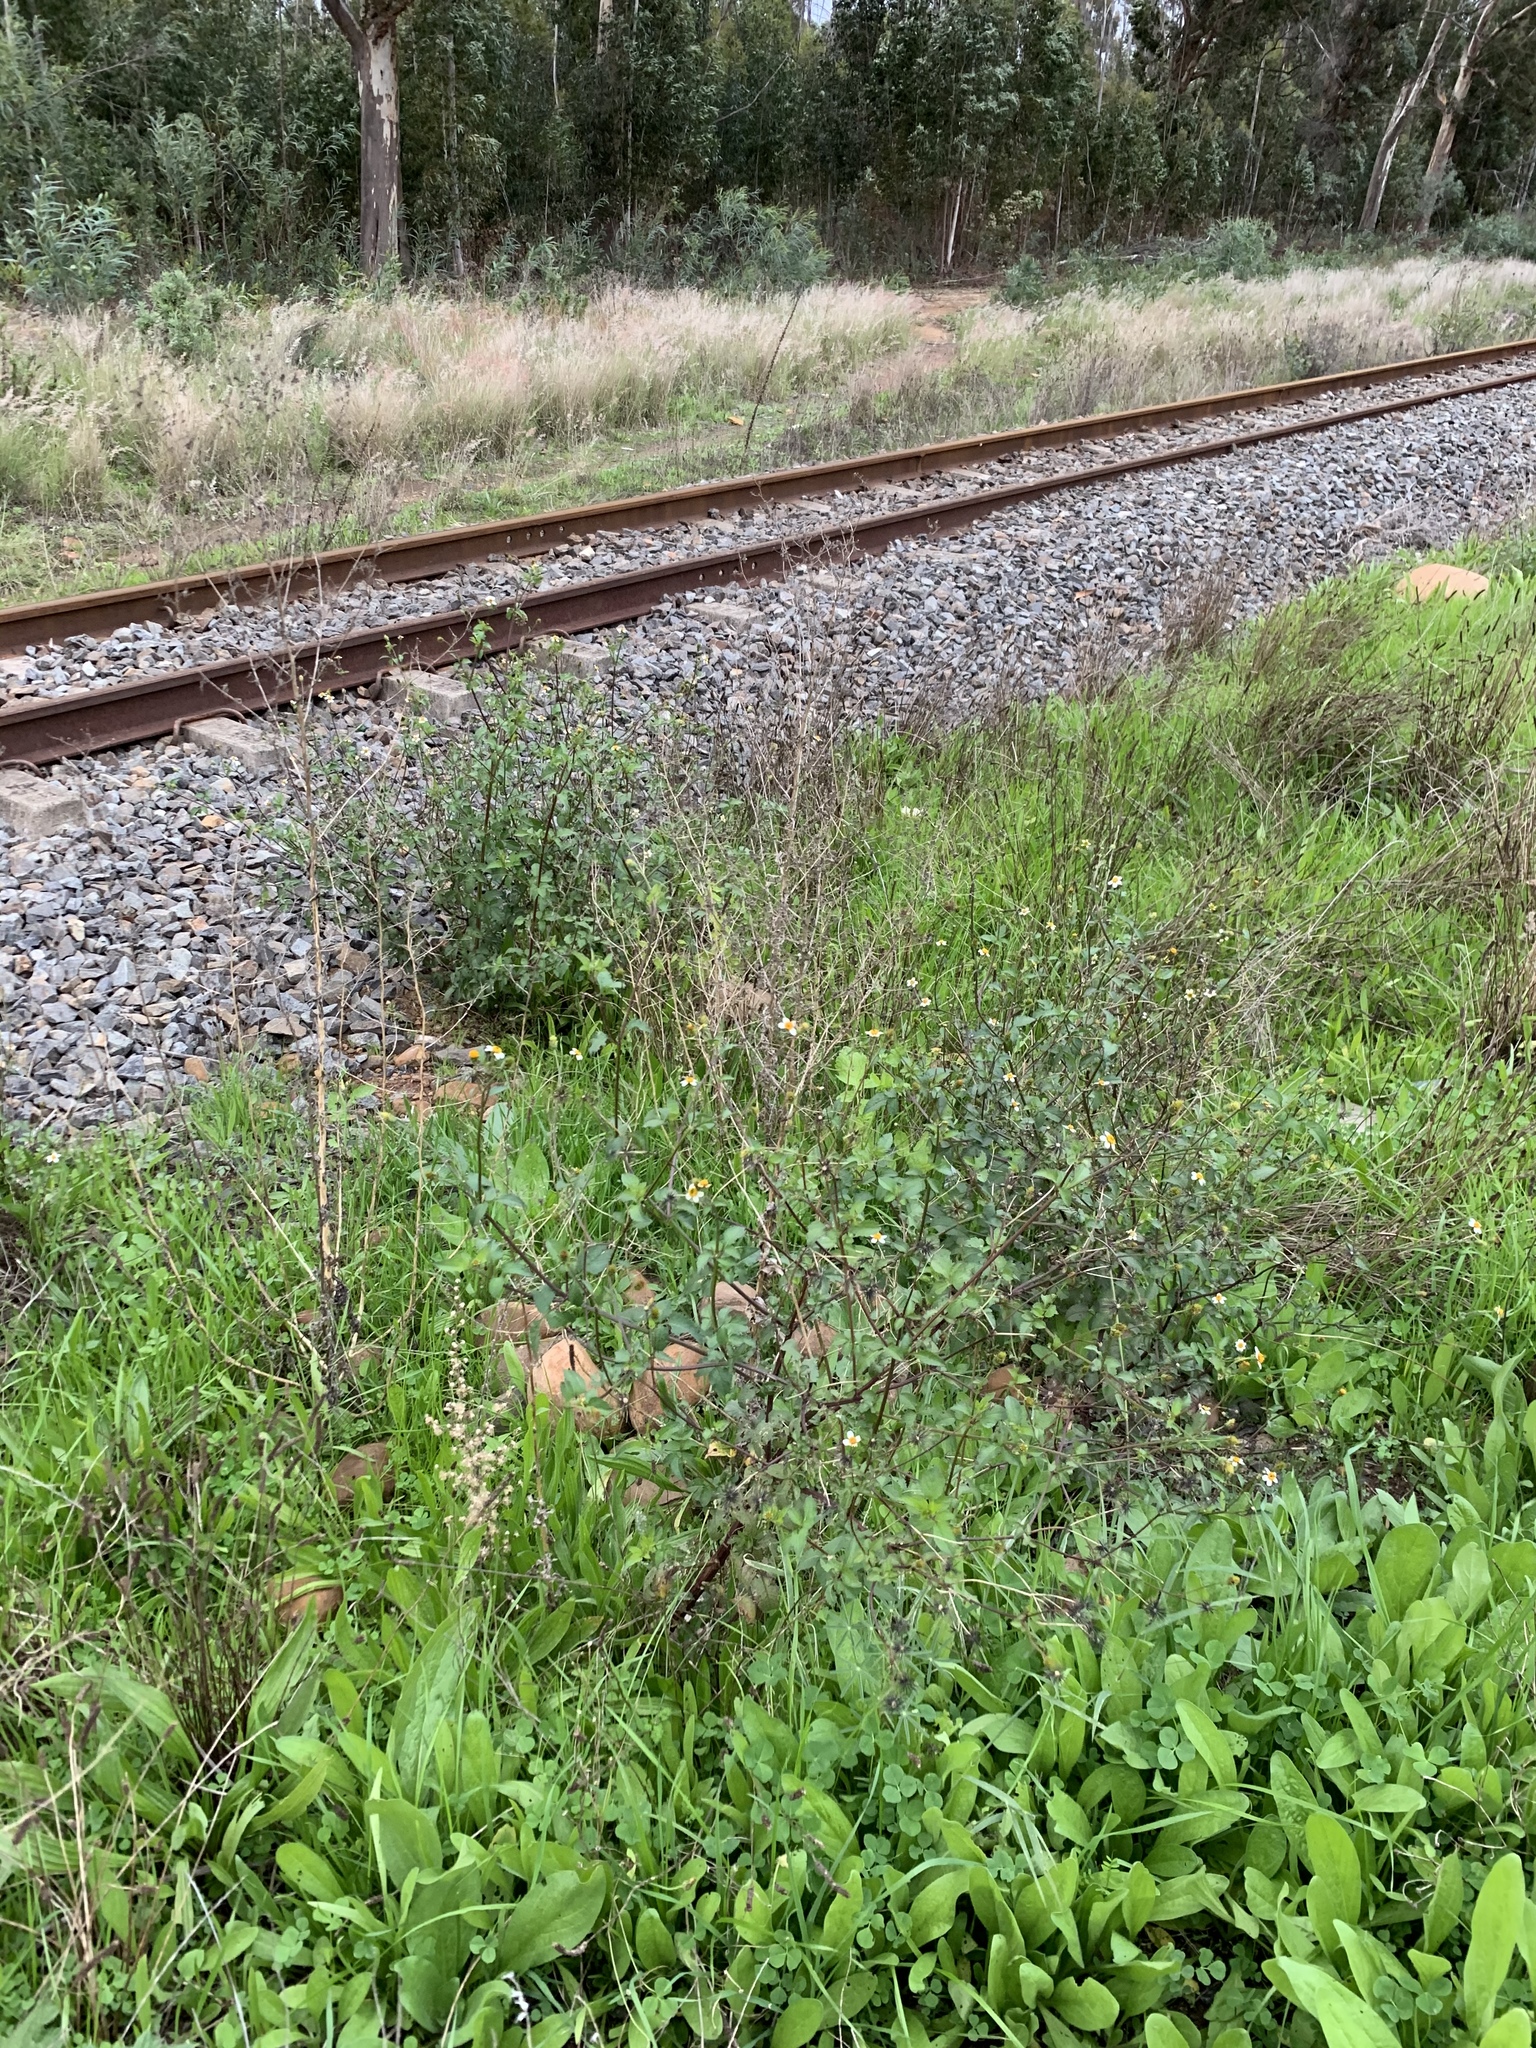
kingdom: Plantae
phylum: Tracheophyta
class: Magnoliopsida
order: Asterales
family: Asteraceae
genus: Bidens
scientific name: Bidens pilosa
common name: Black-jack
